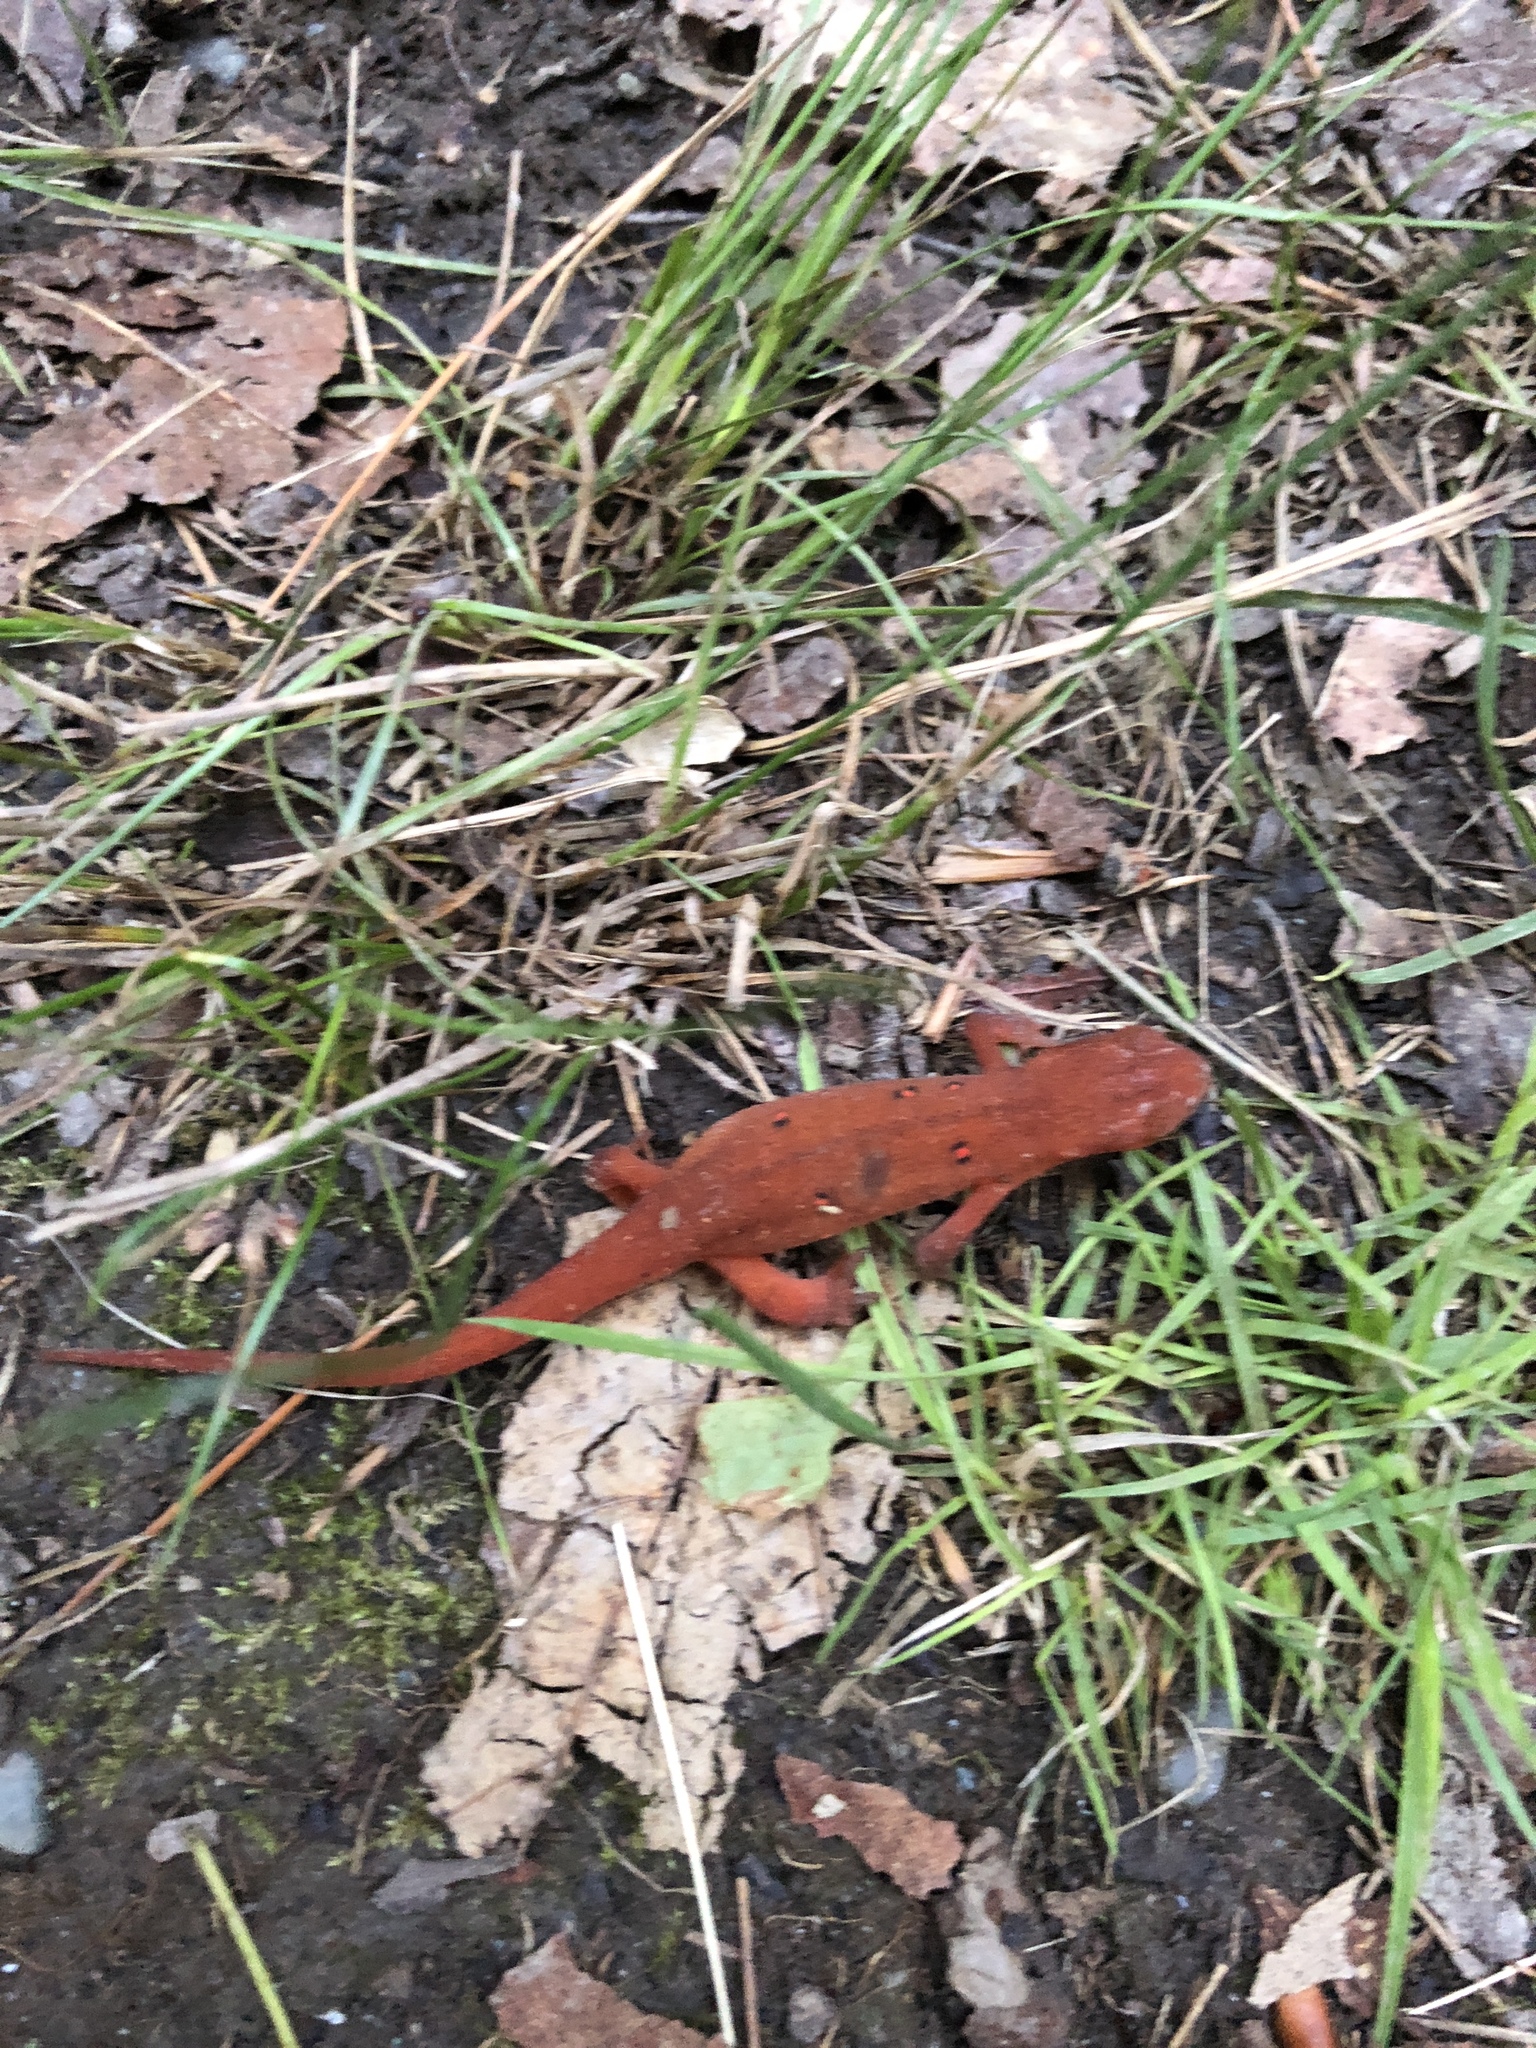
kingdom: Animalia
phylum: Chordata
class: Amphibia
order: Caudata
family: Salamandridae
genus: Notophthalmus
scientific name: Notophthalmus viridescens
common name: Eastern newt
